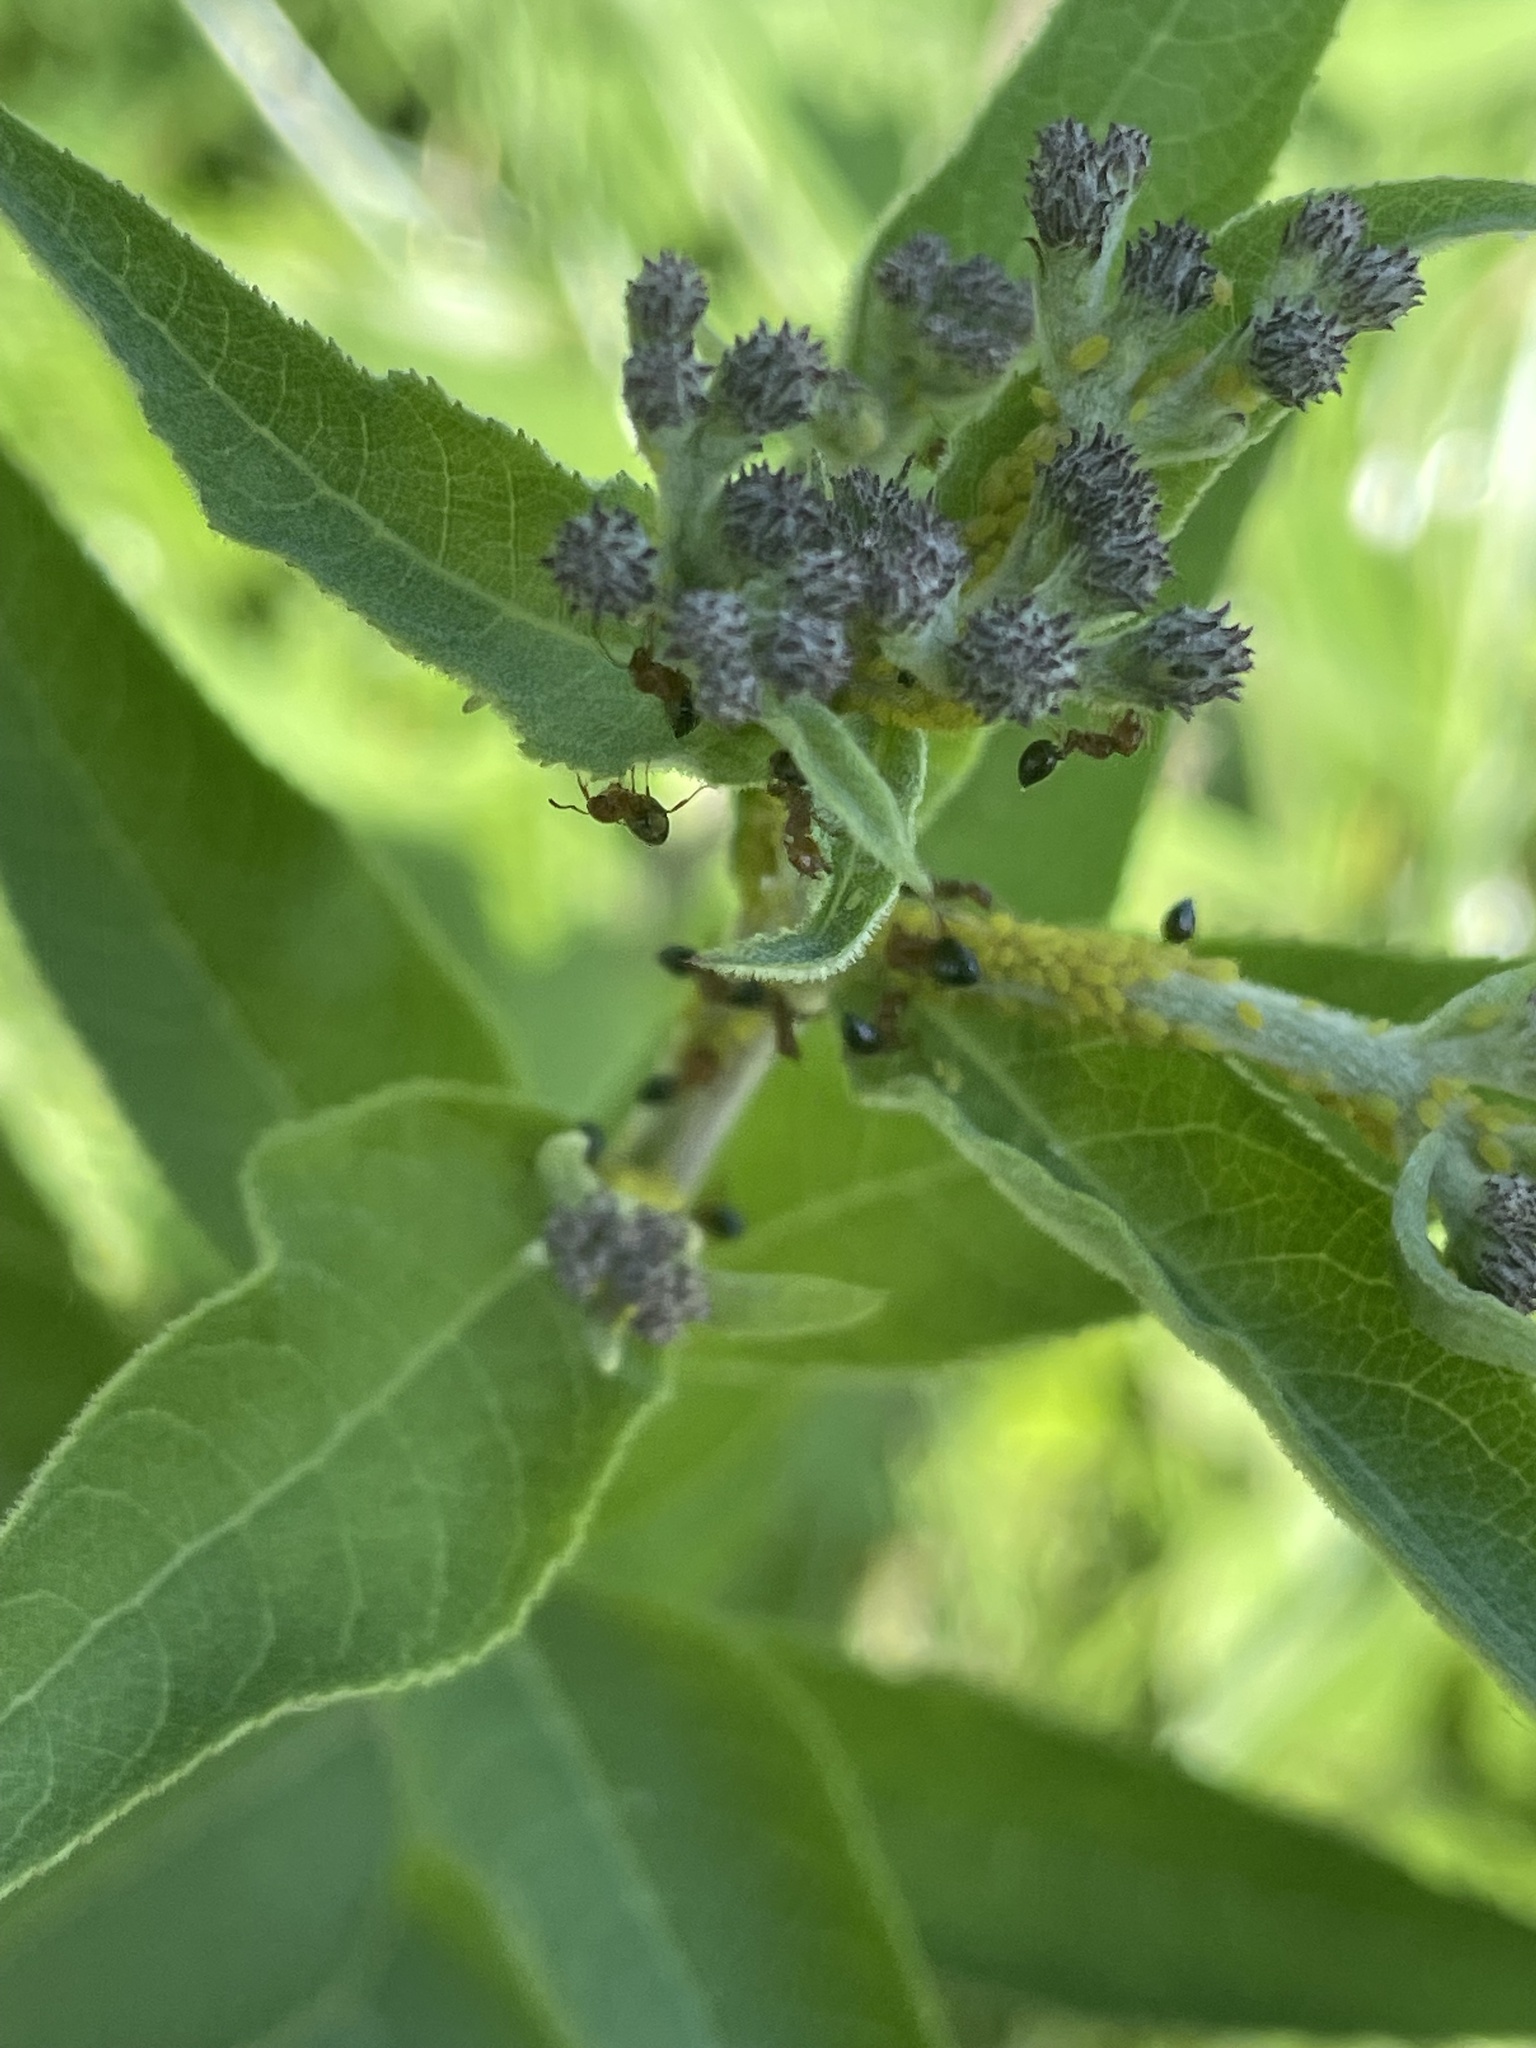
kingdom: Plantae
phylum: Tracheophyta
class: Magnoliopsida
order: Asterales
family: Asteraceae
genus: Vernonia
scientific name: Vernonia baldwinii
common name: Western ironweed
